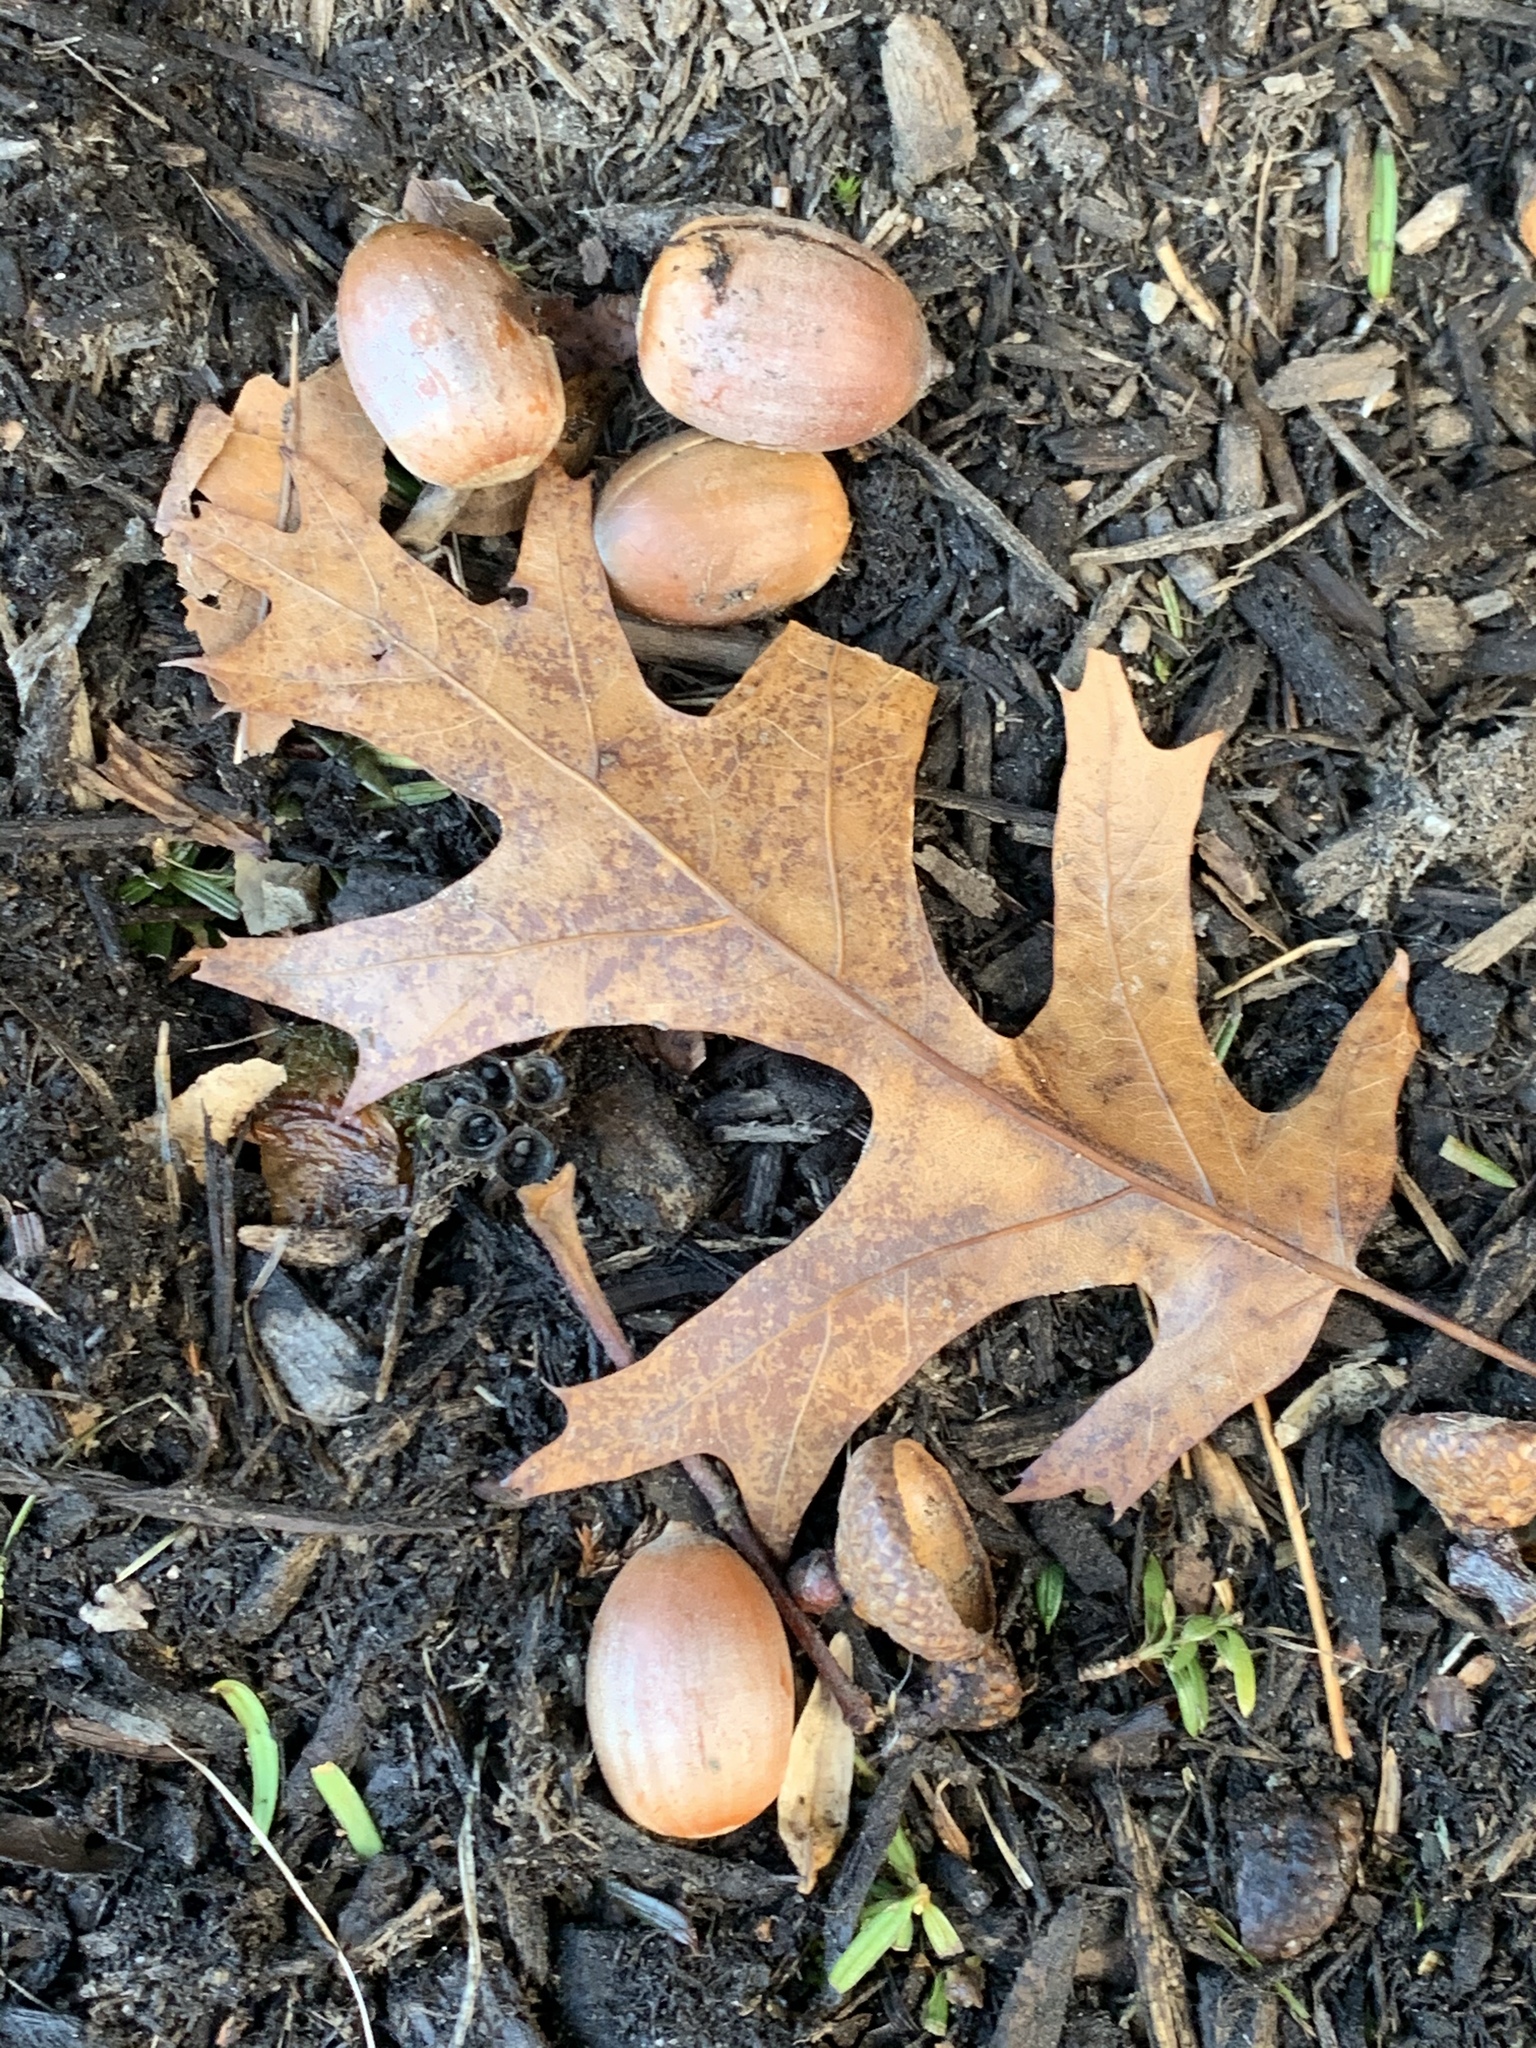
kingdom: Plantae
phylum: Tracheophyta
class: Magnoliopsida
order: Fagales
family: Fagaceae
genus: Quercus
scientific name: Quercus rubra
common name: Red oak
